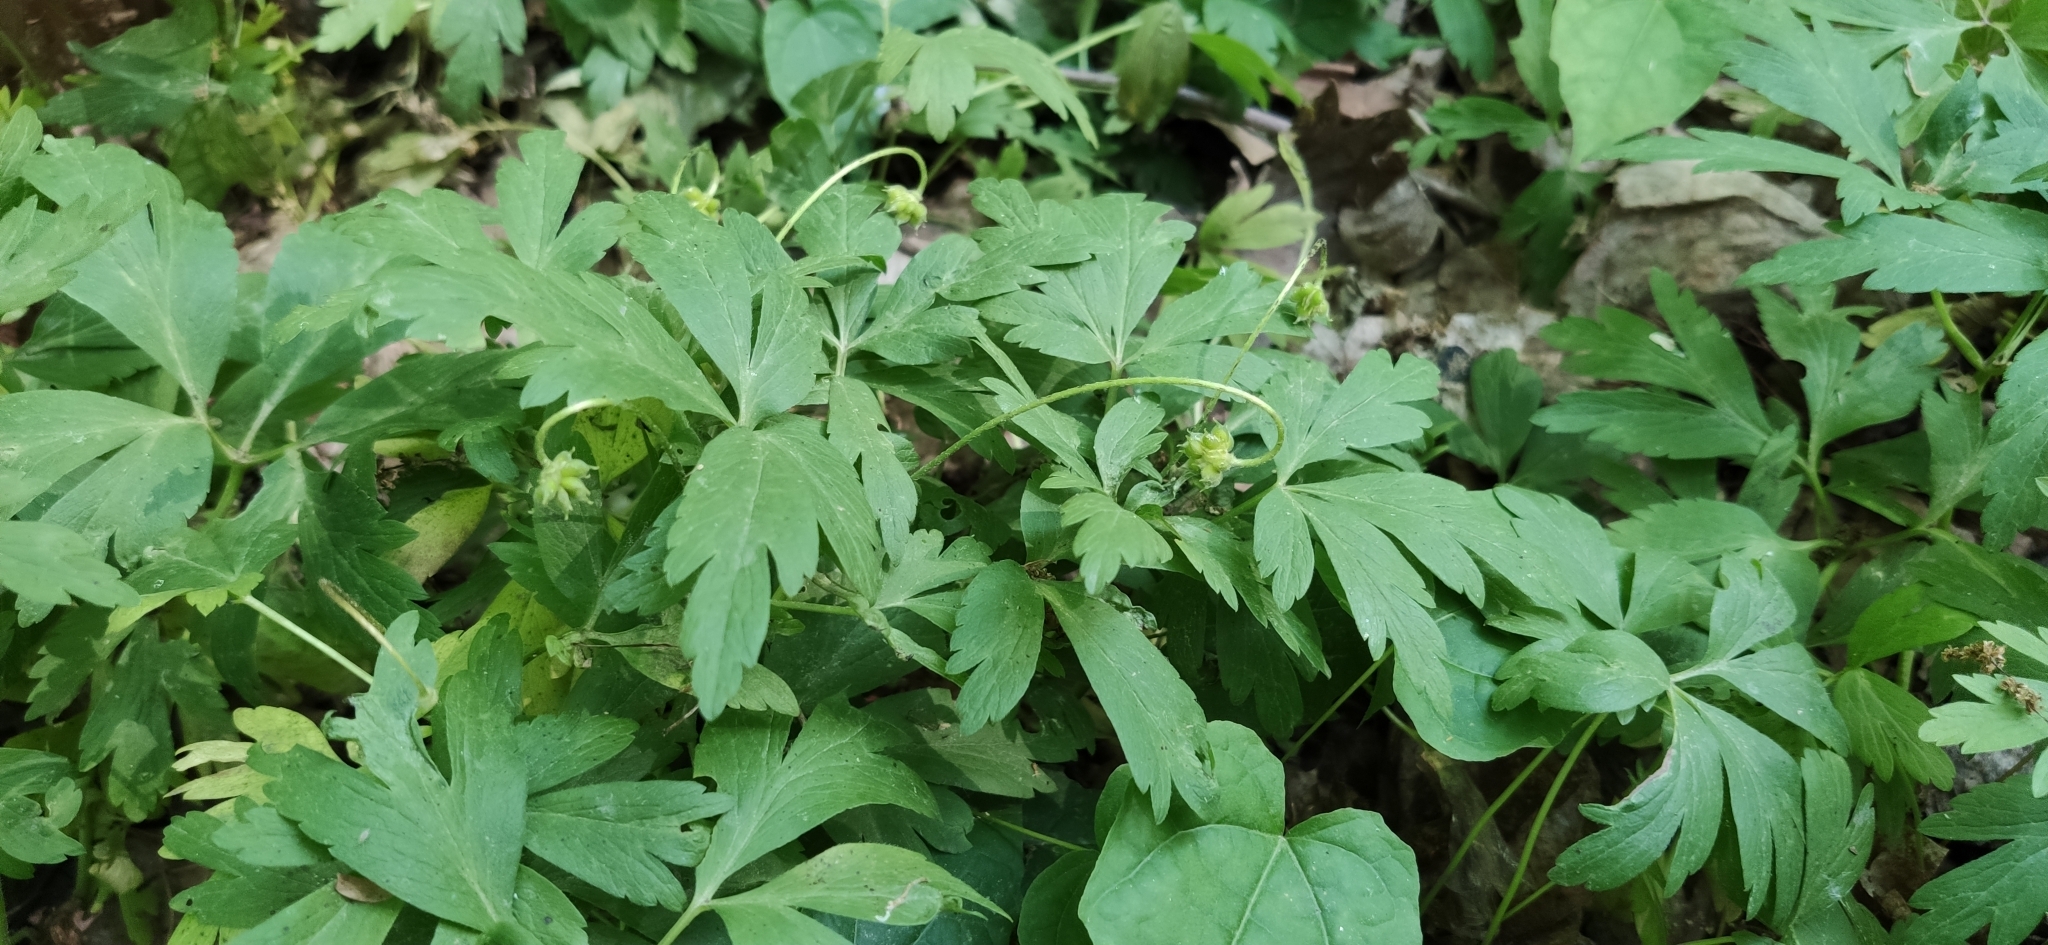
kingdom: Plantae
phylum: Tracheophyta
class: Magnoliopsida
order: Ranunculales
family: Ranunculaceae
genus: Anemone
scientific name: Anemone nemorosa
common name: Wood anemone
